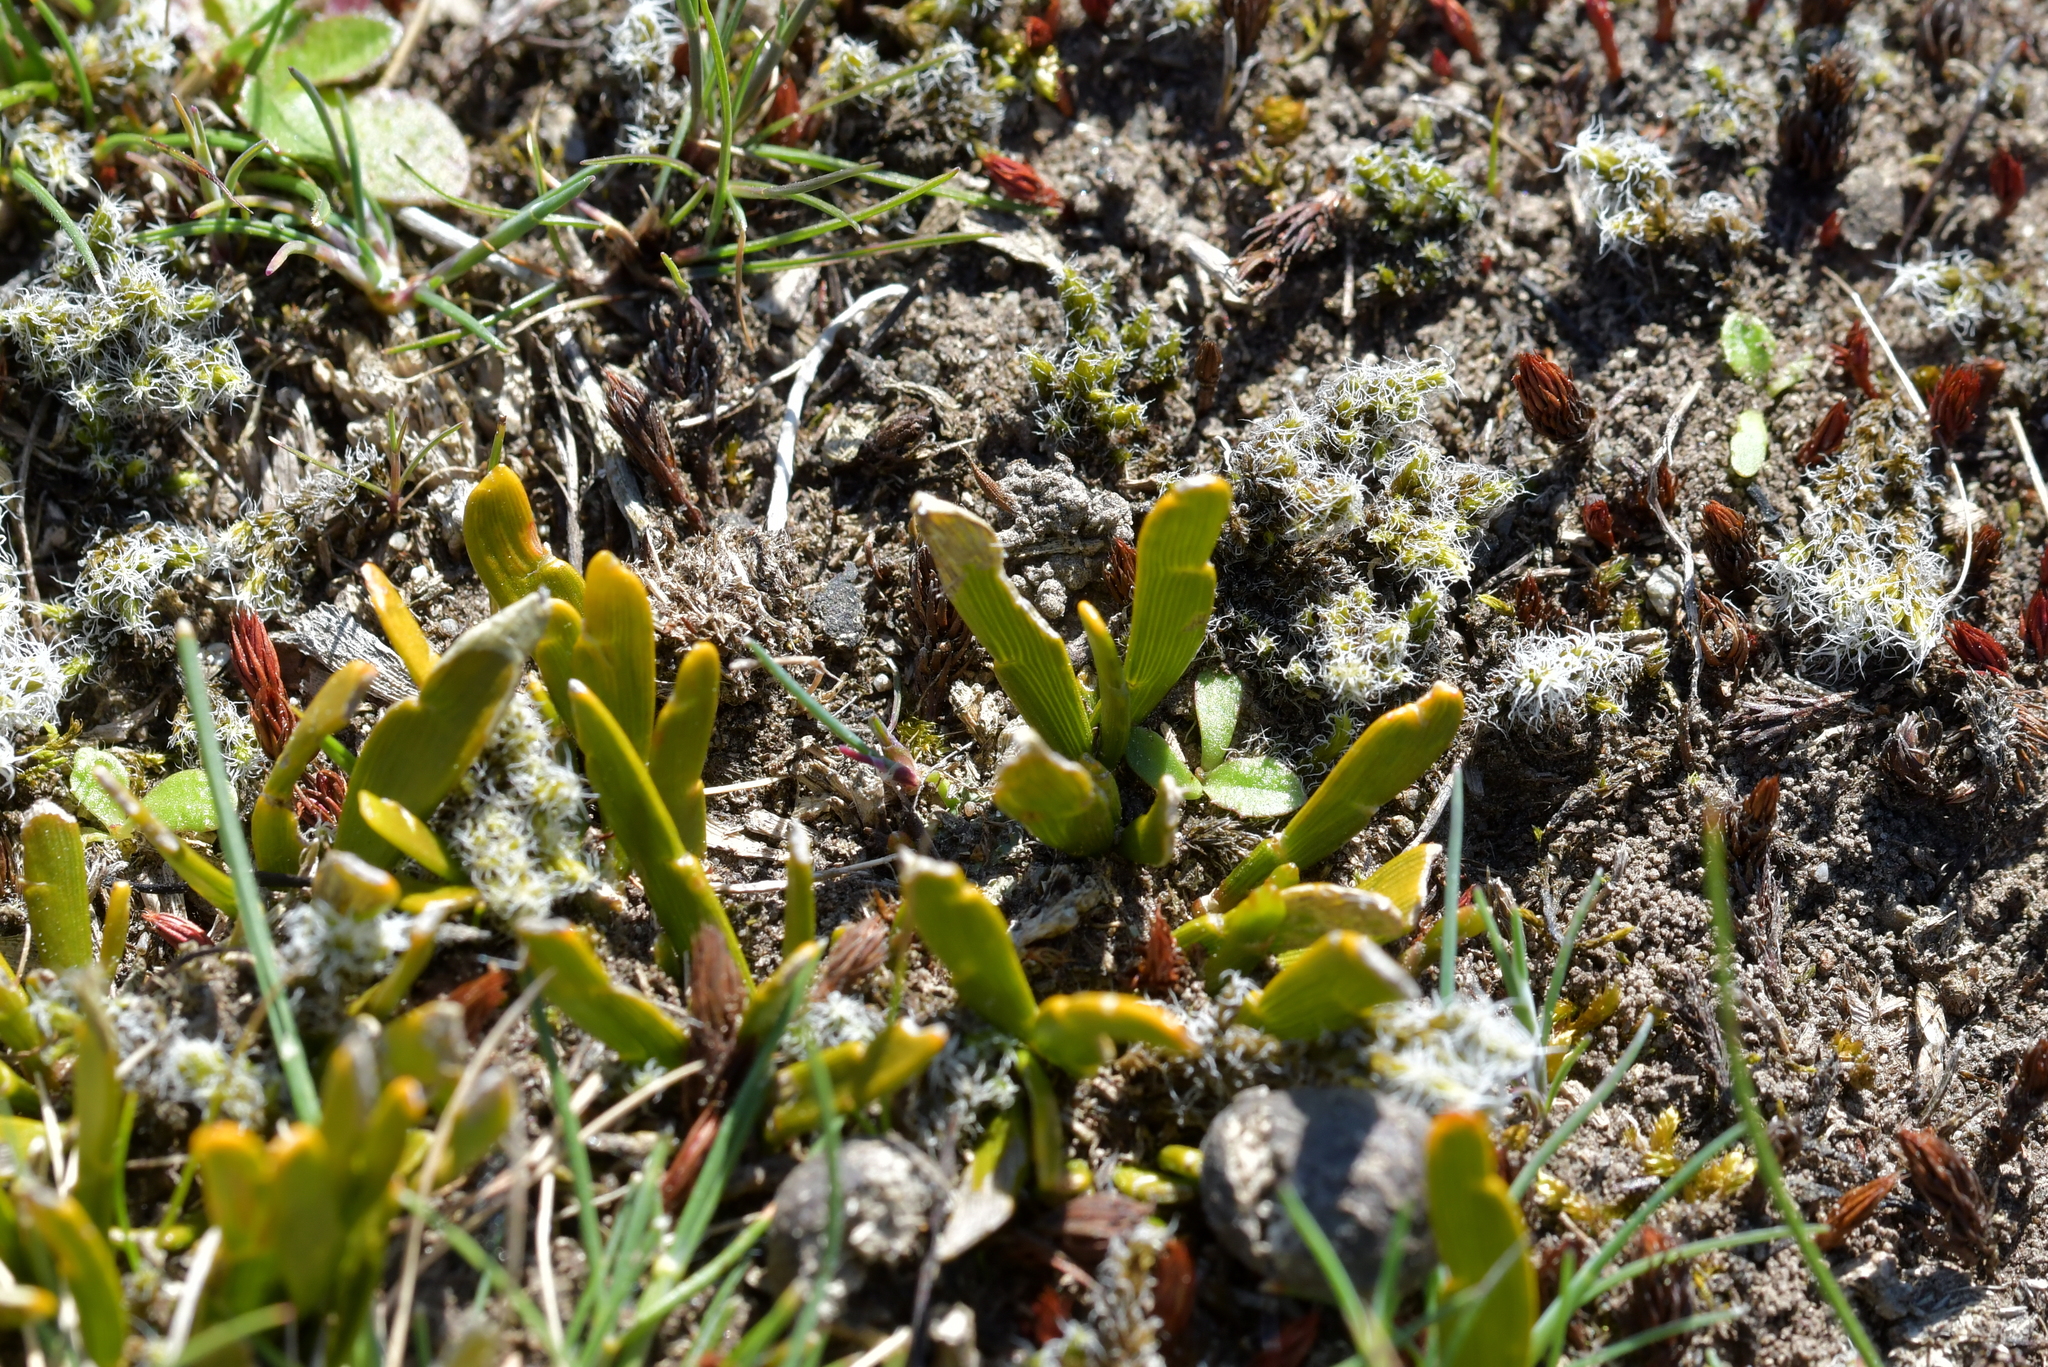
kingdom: Plantae
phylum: Tracheophyta
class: Magnoliopsida
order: Fabales
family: Fabaceae
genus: Carmichaelia
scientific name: Carmichaelia corrugata
